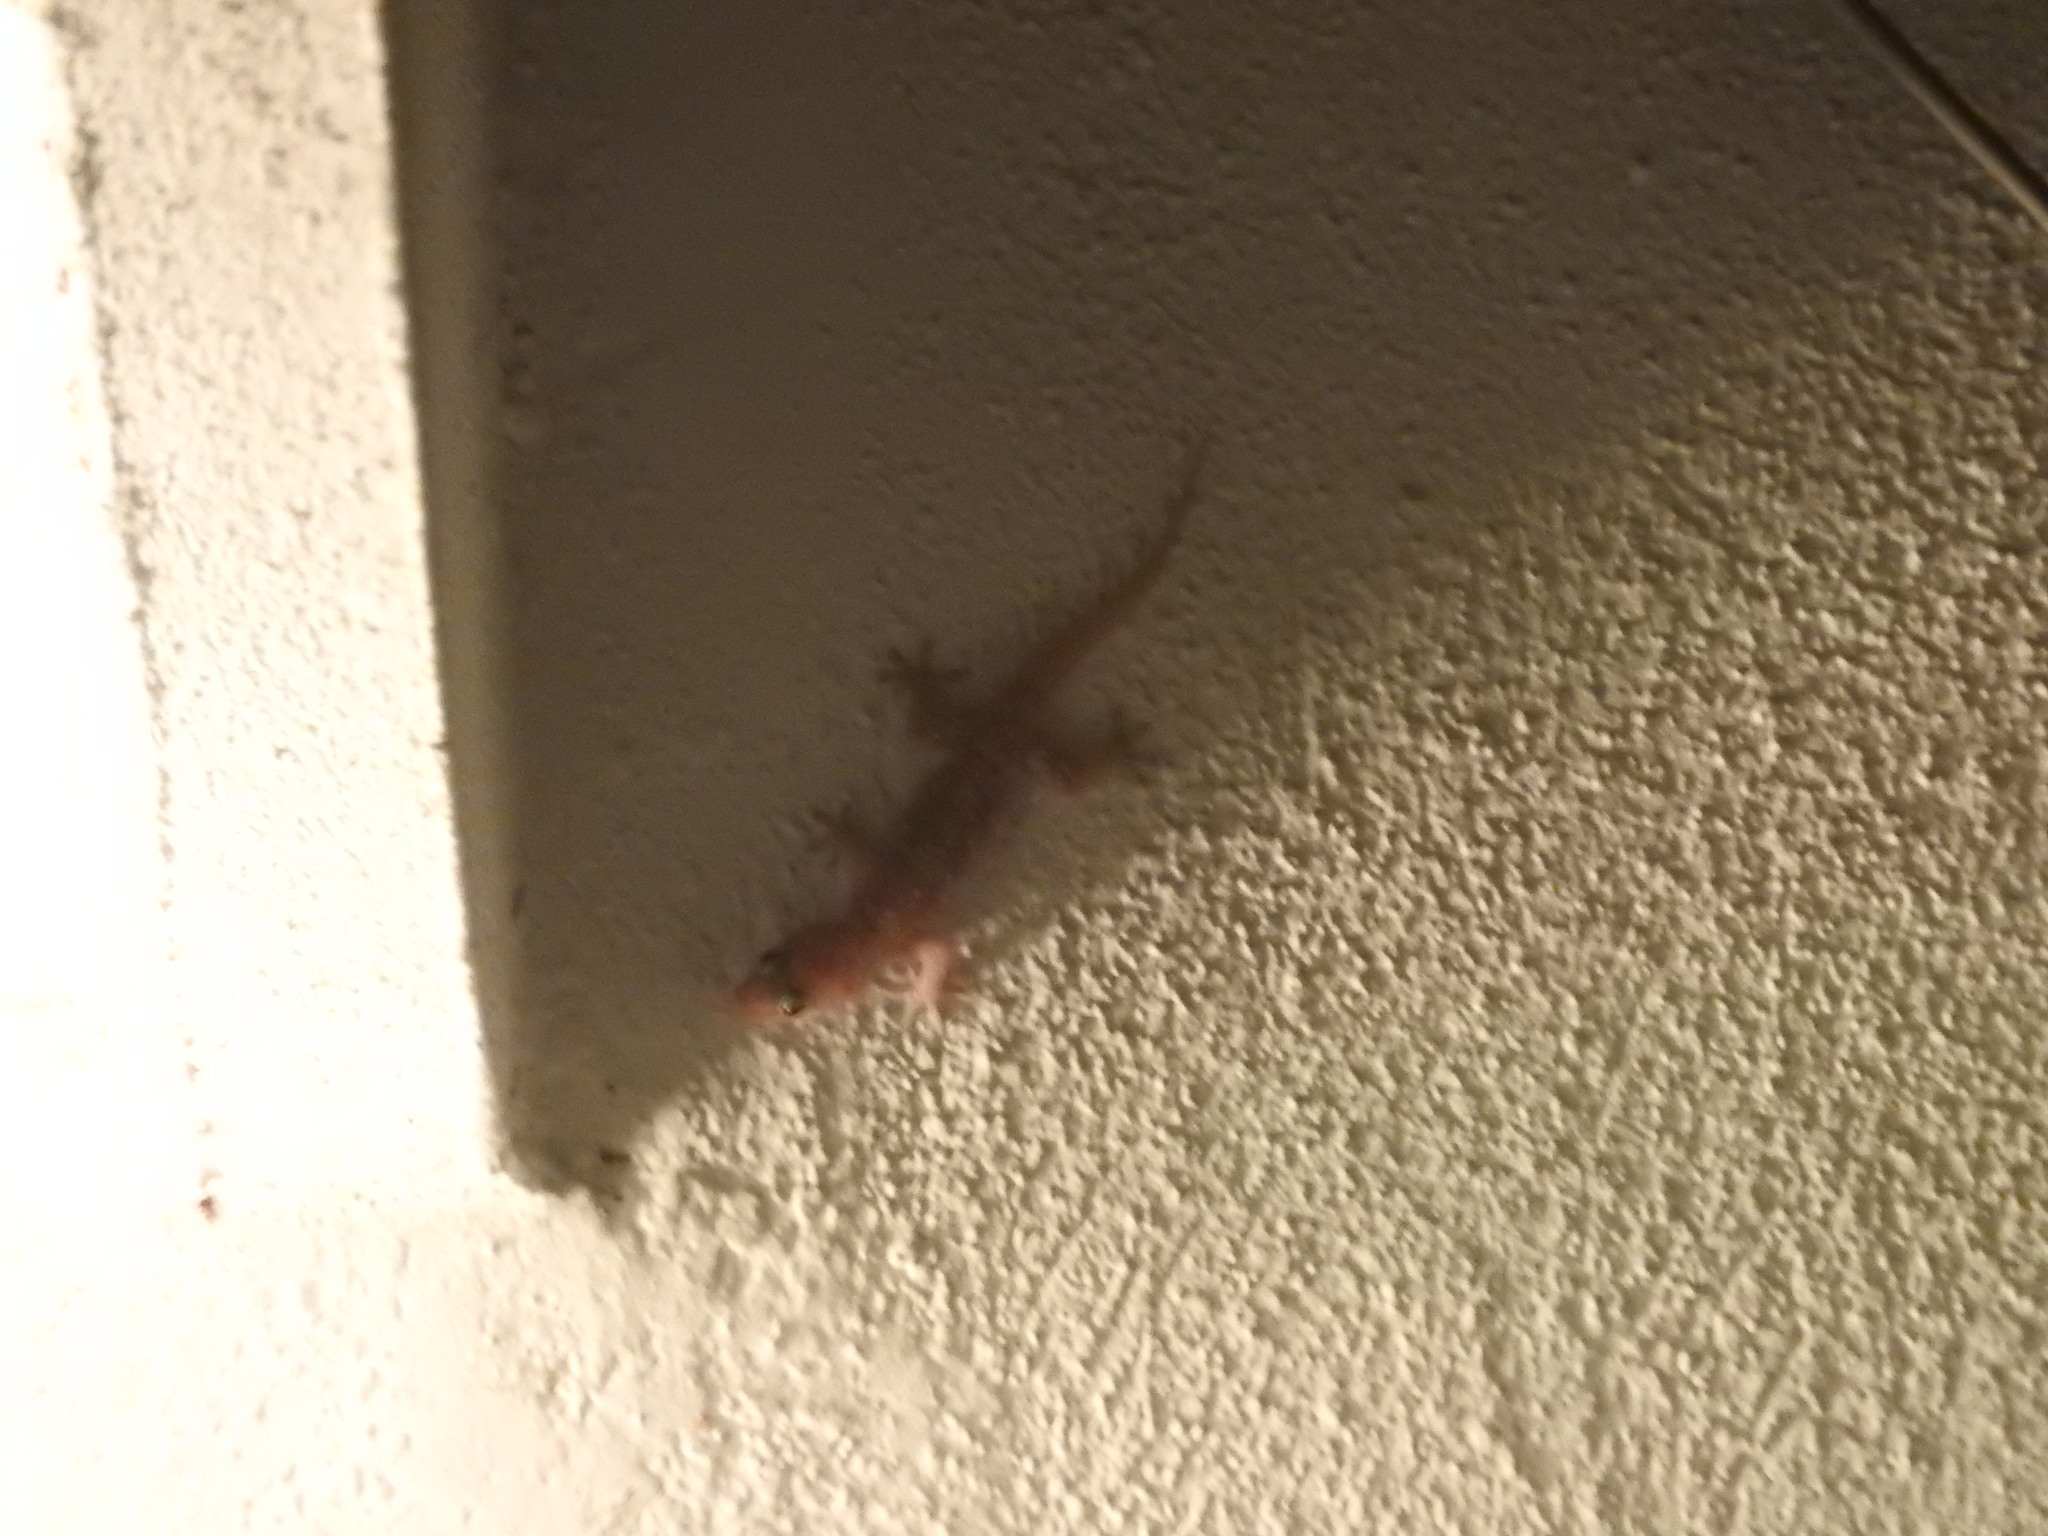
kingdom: Animalia
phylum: Chordata
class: Squamata
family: Gekkonidae
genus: Hemidactylus
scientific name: Hemidactylus turcicus
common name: Turkish gecko
